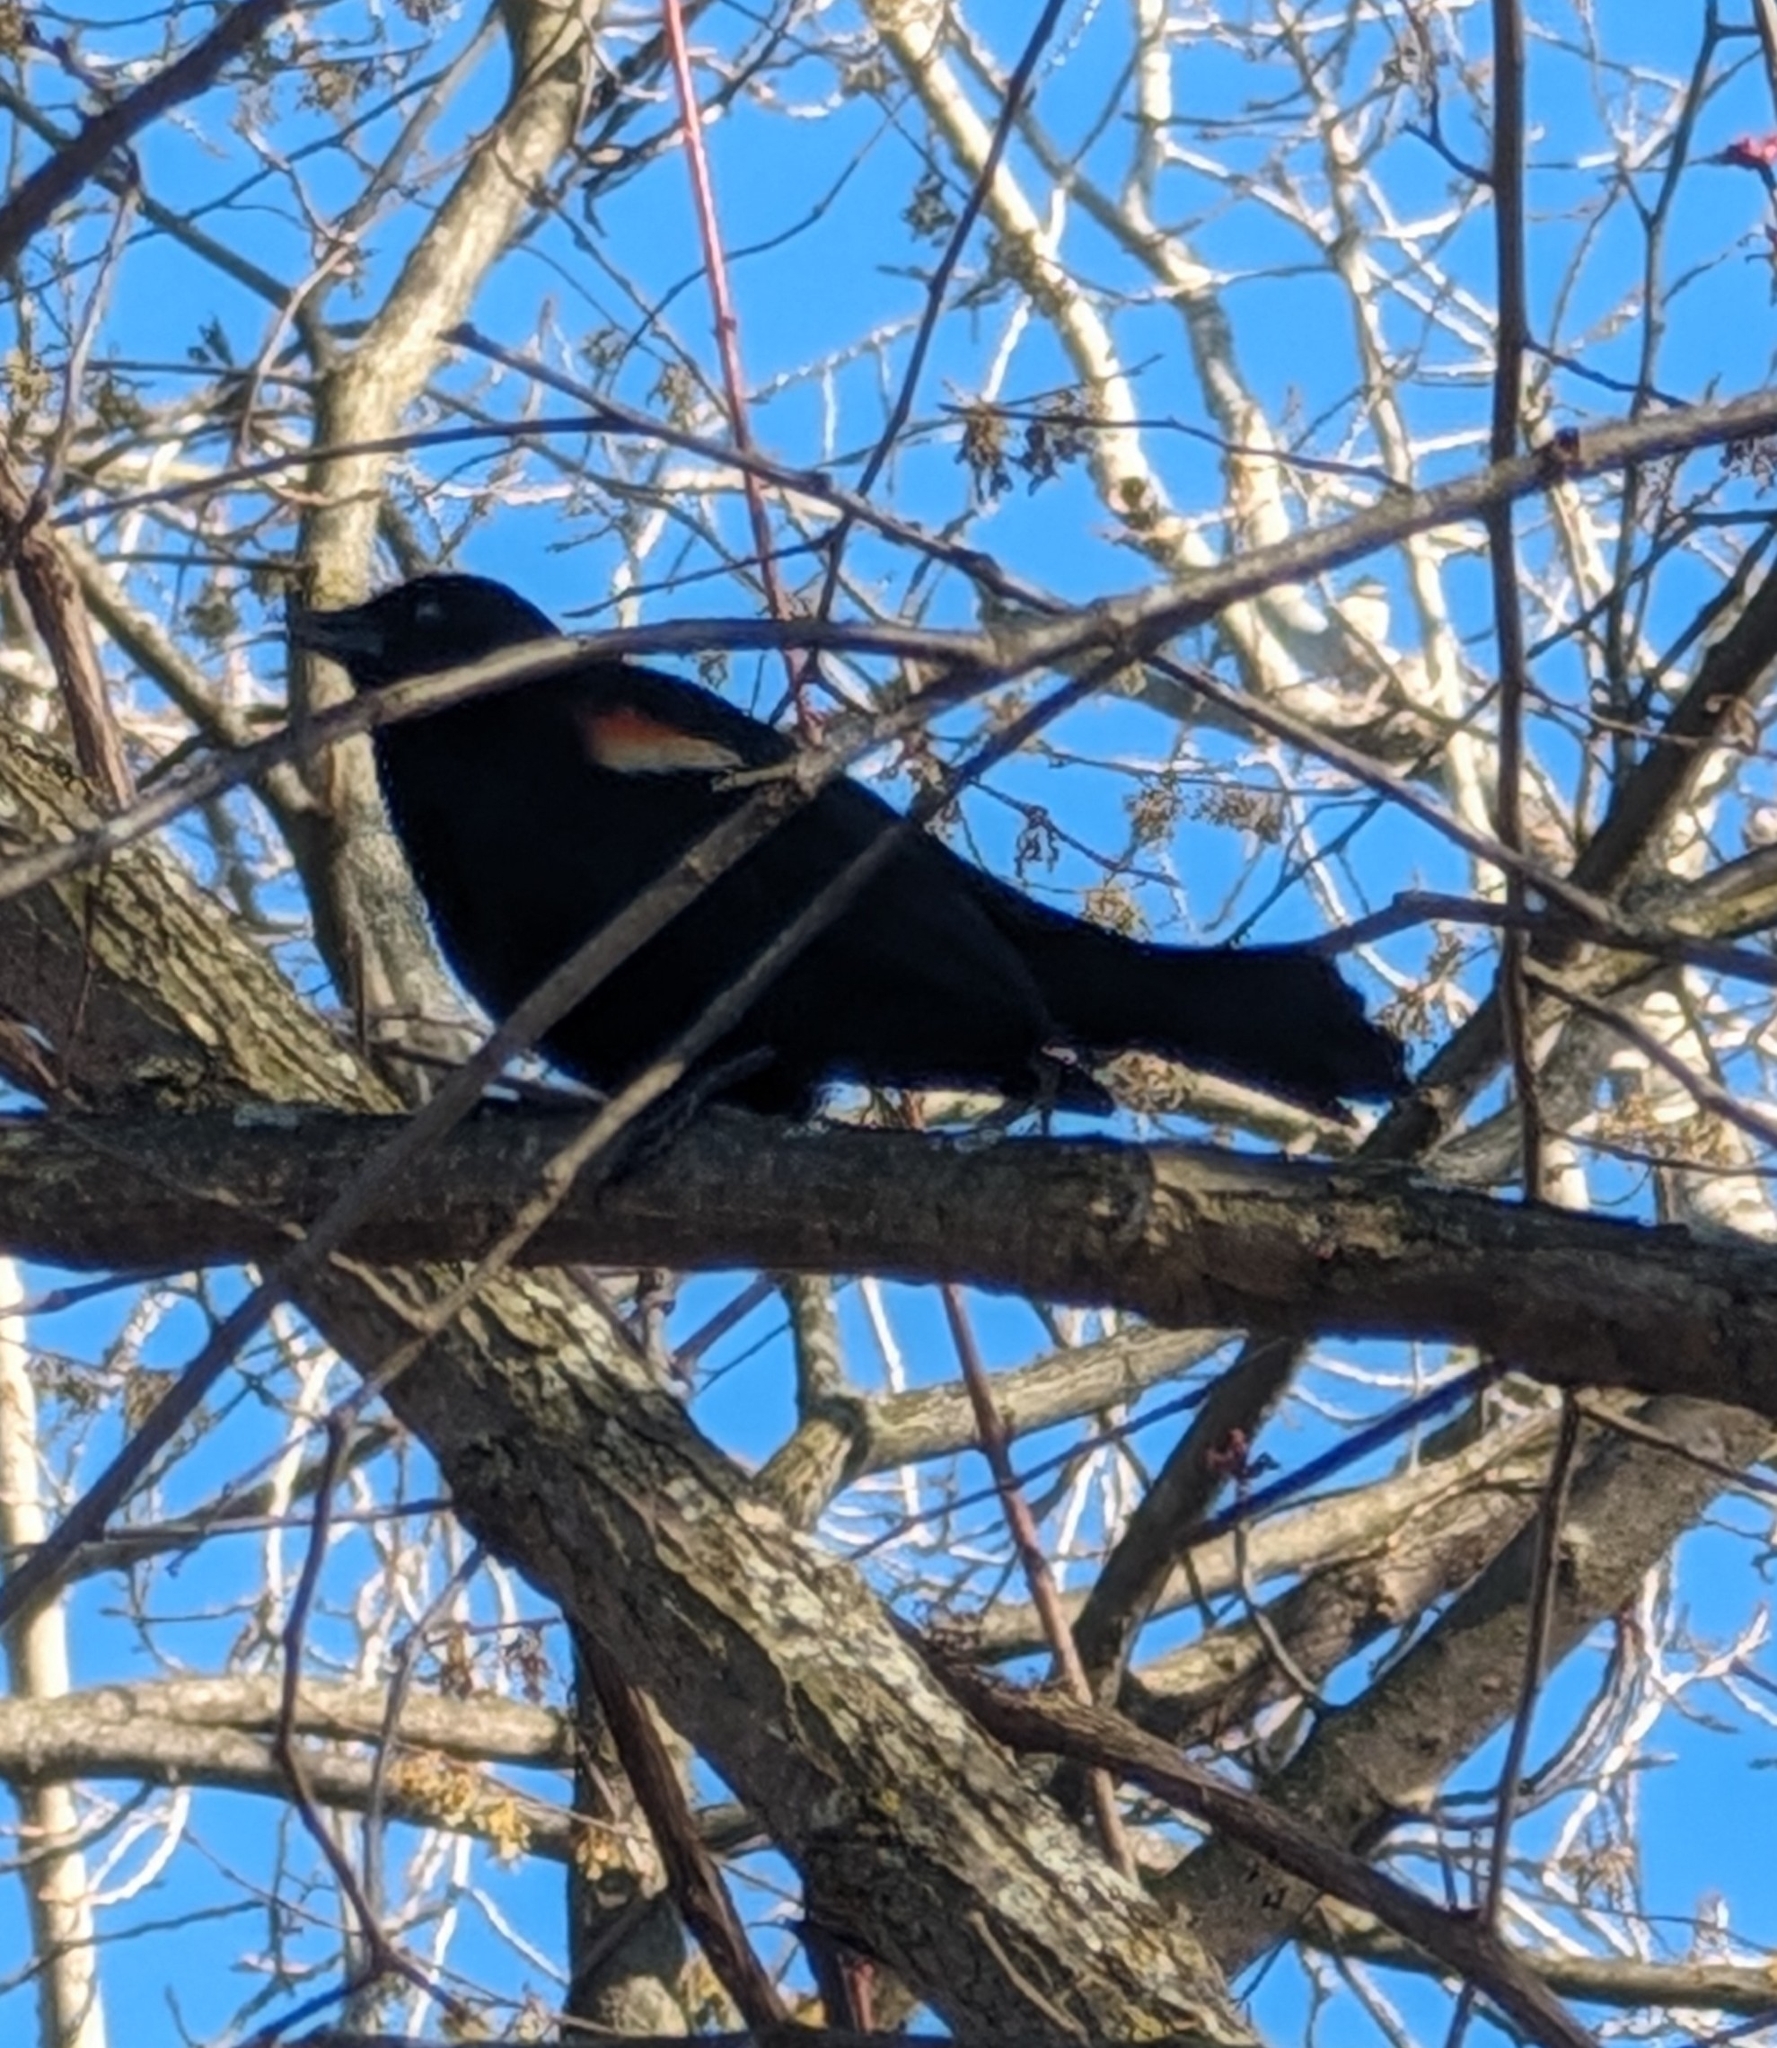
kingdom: Animalia
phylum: Chordata
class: Aves
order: Passeriformes
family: Icteridae
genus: Agelaius
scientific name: Agelaius phoeniceus
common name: Red-winged blackbird
